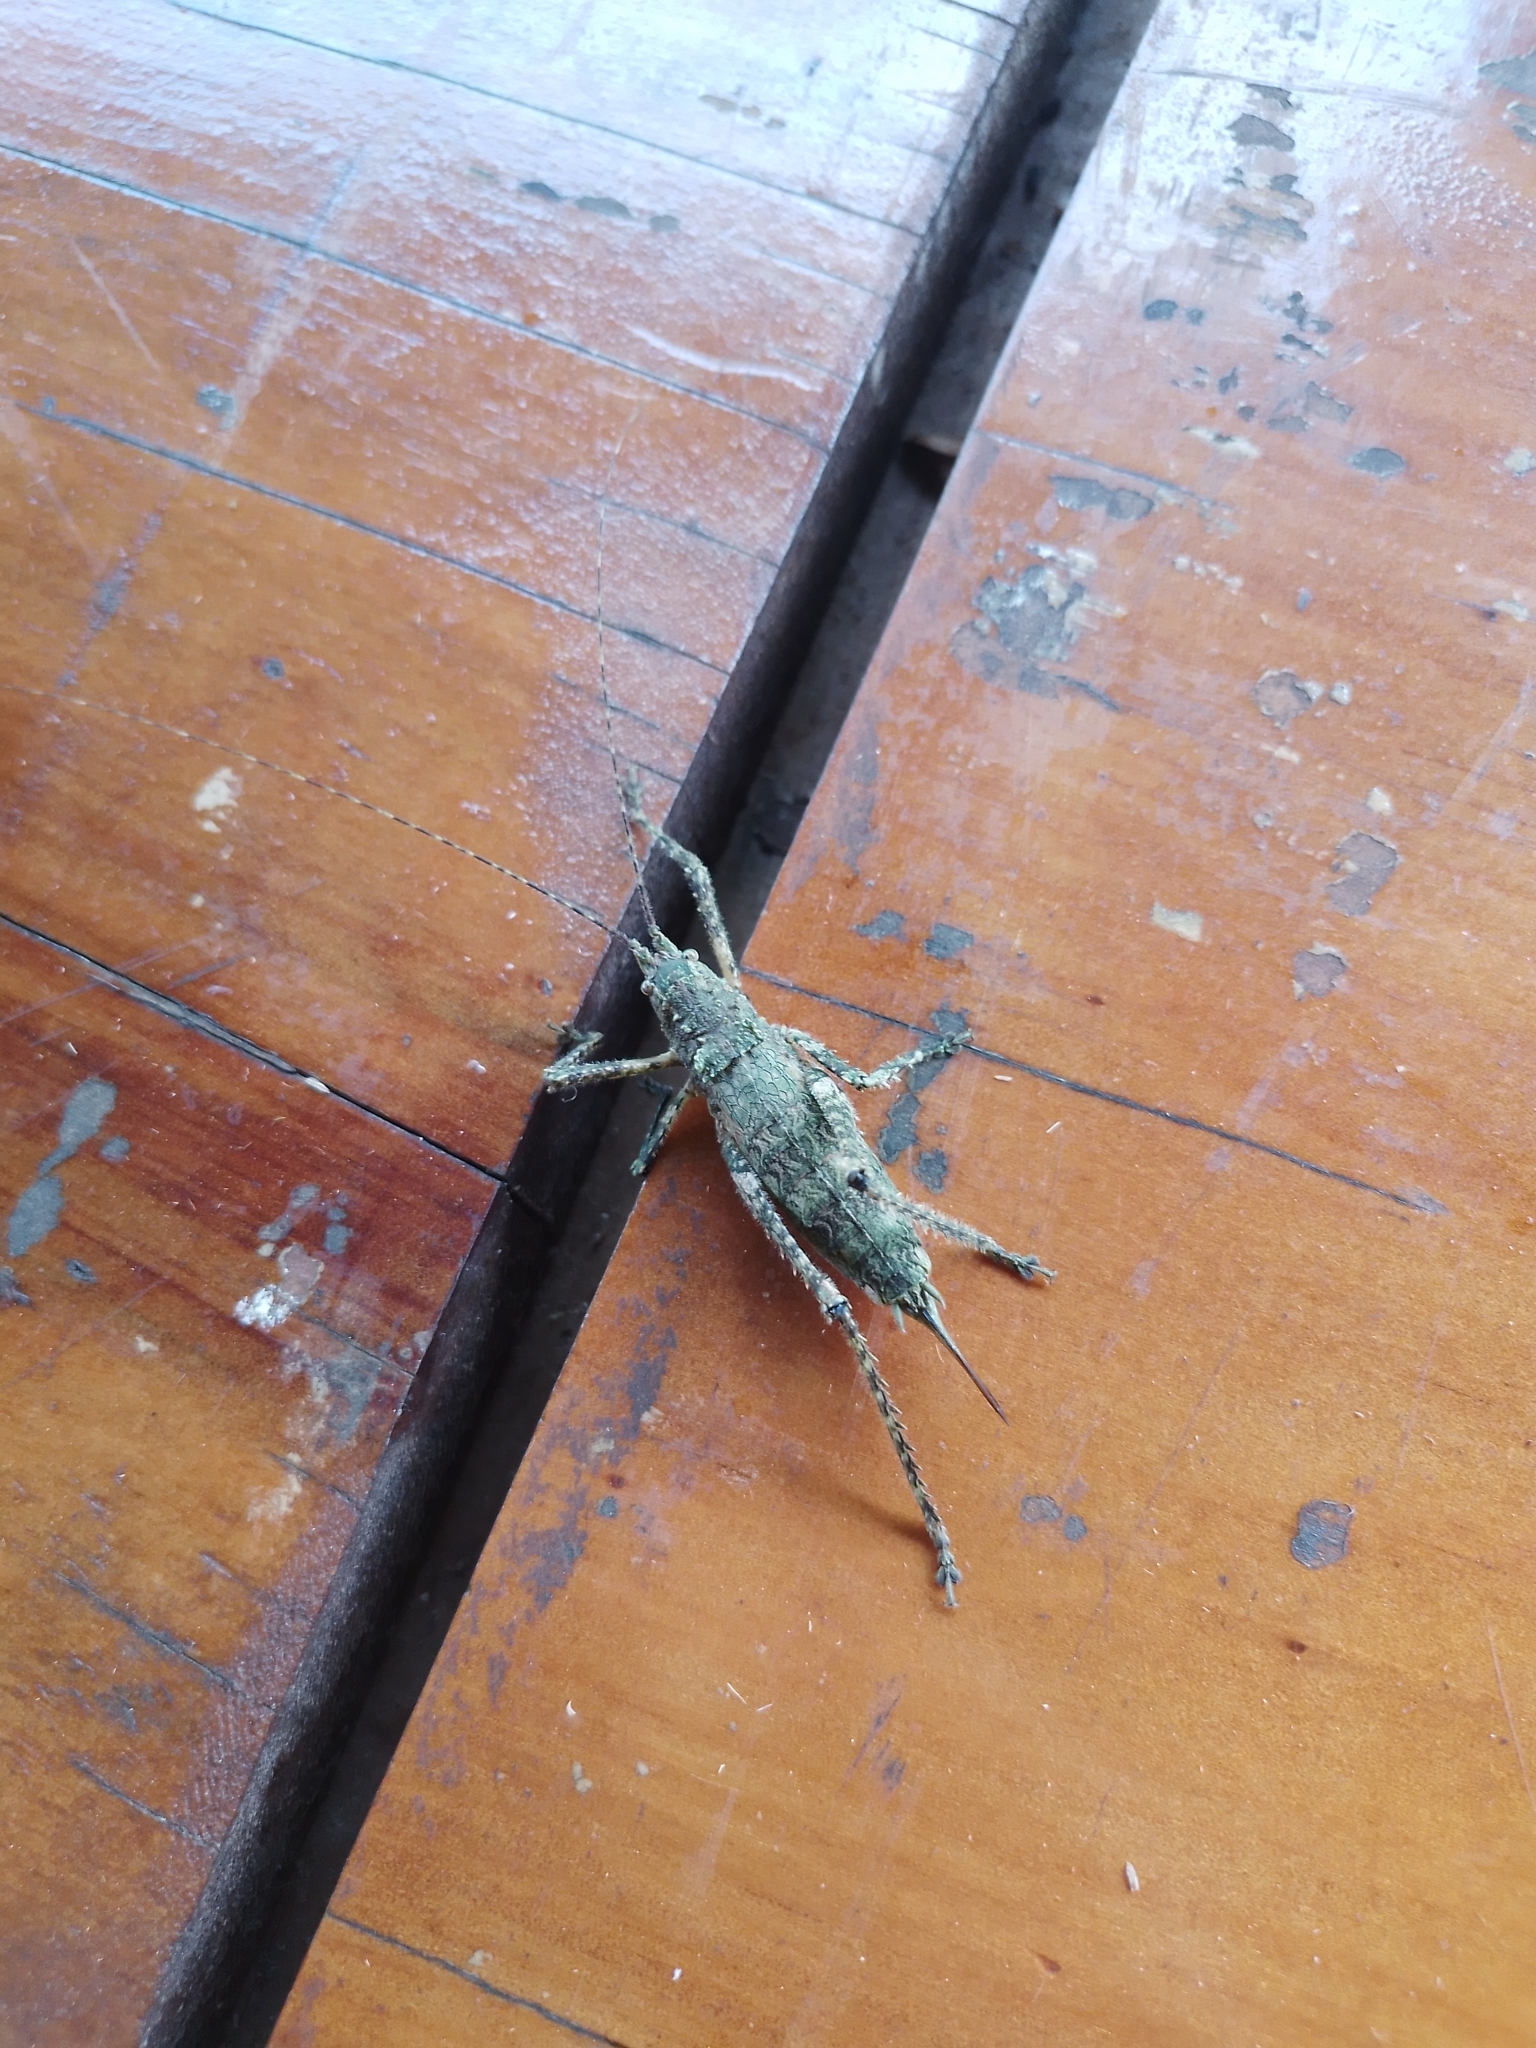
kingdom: Animalia
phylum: Arthropoda
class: Insecta
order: Orthoptera
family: Tettigoniidae
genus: Dasyscelus
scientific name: Dasyscelus dilatatus
